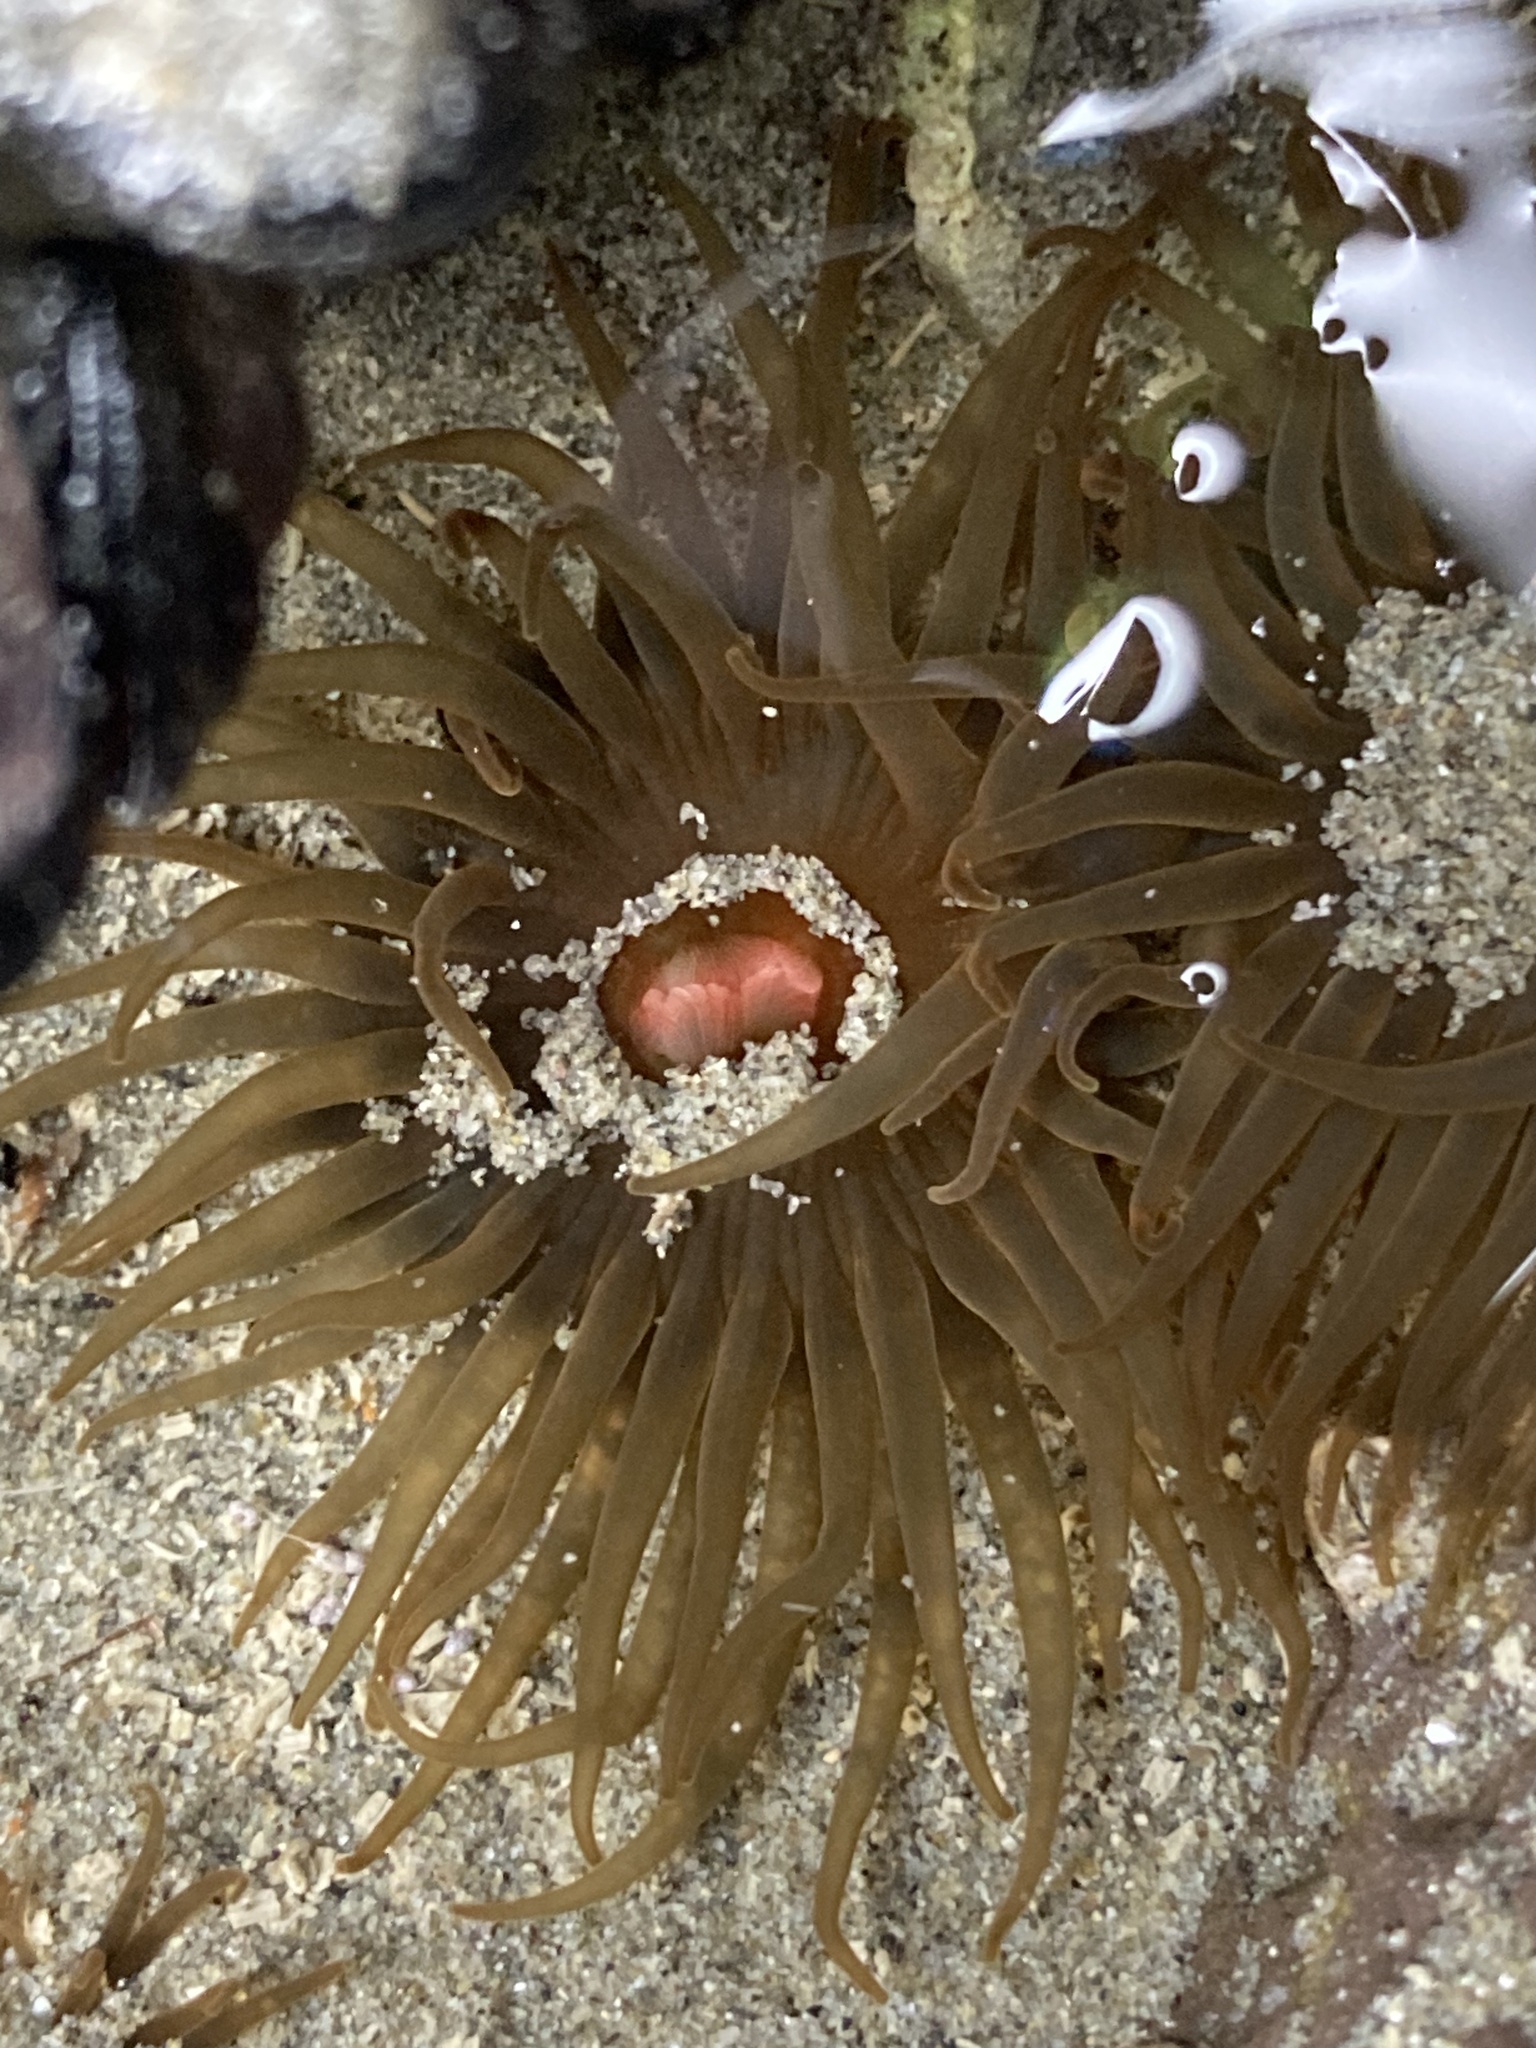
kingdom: Animalia
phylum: Cnidaria
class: Anthozoa
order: Actiniaria
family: Actiniidae
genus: Isactinia
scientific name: Isactinia olivacea
